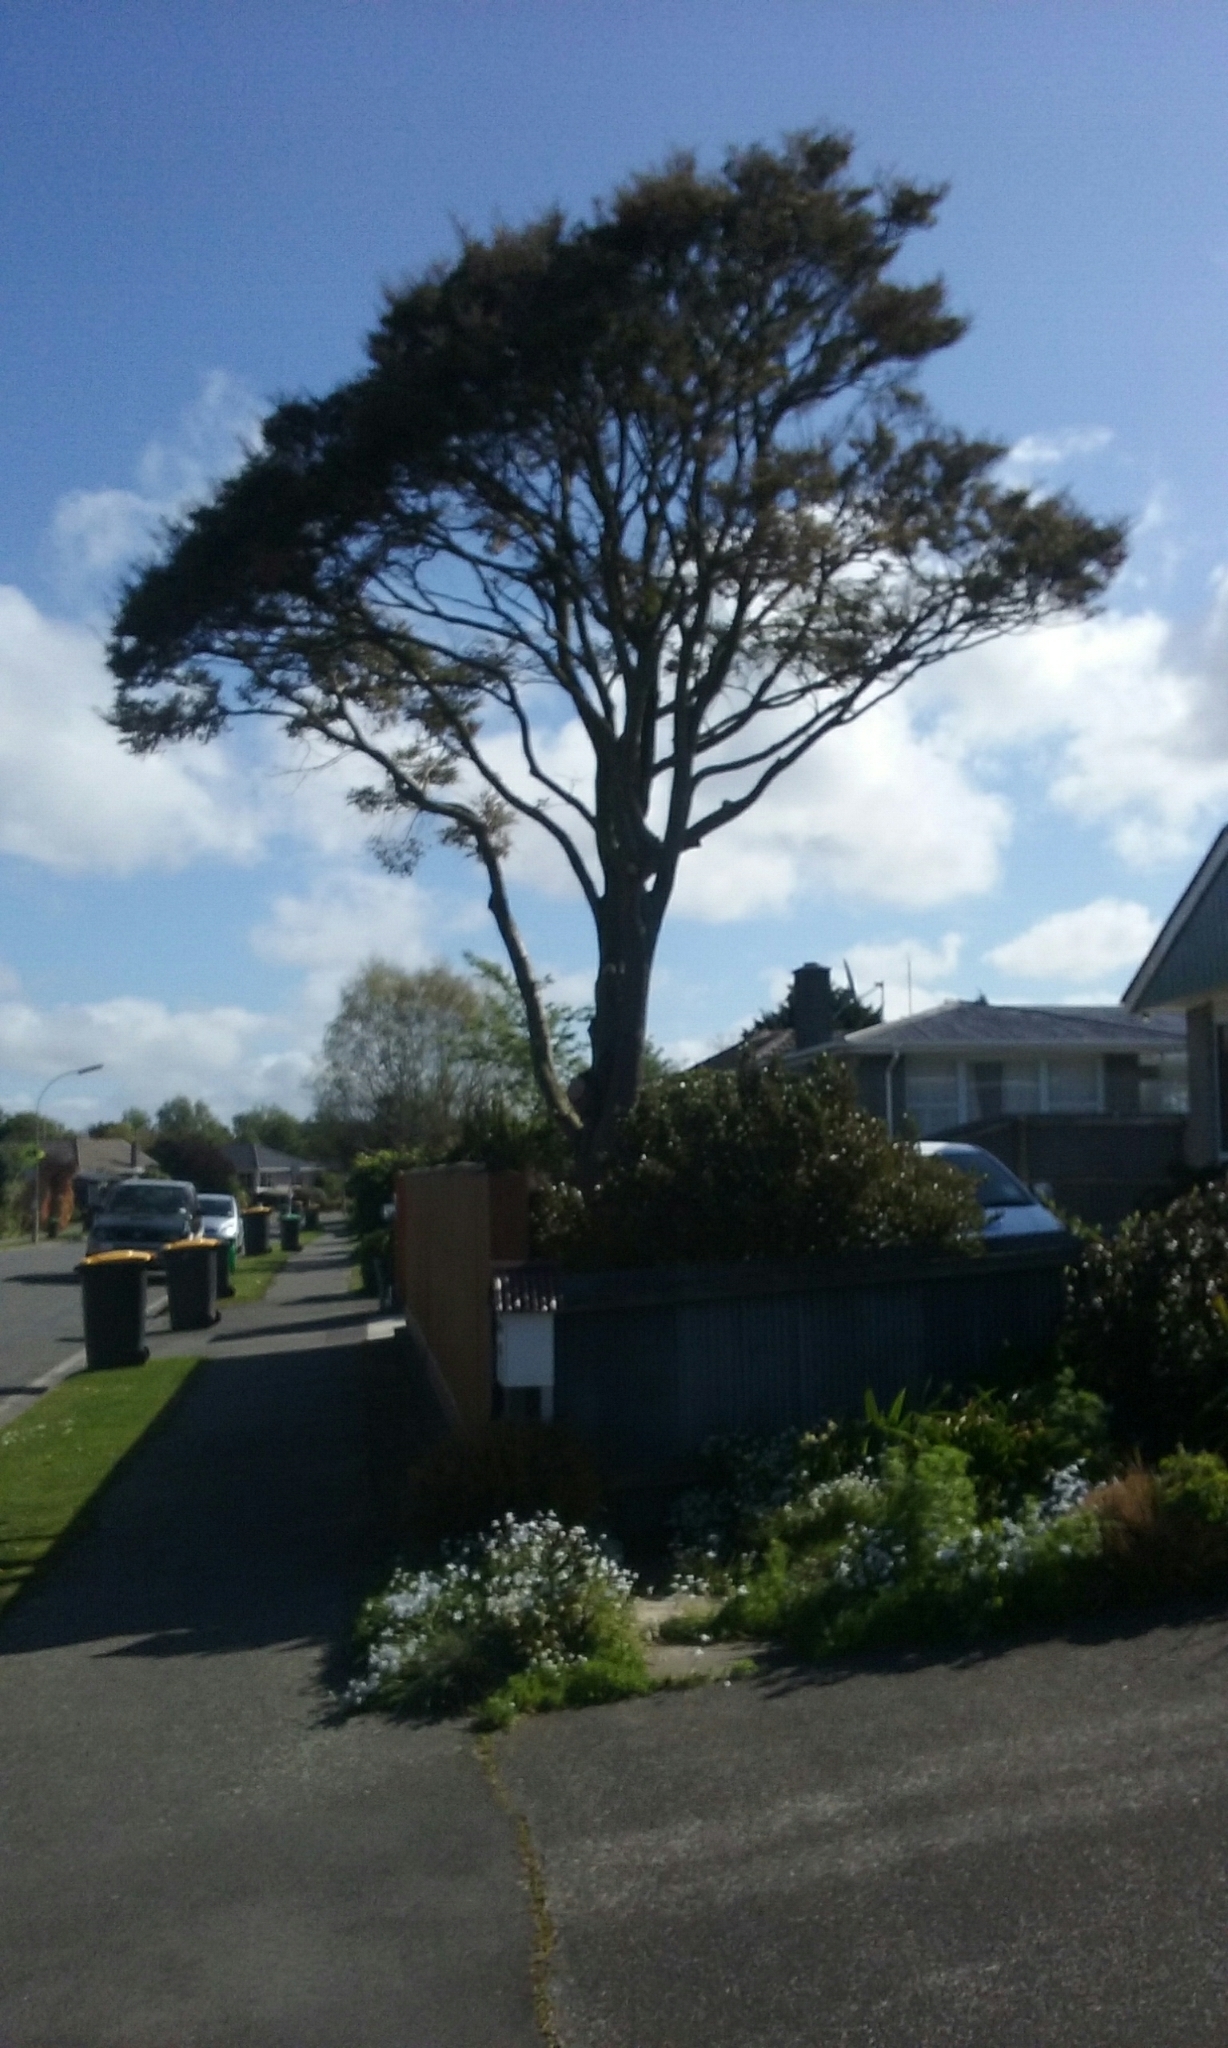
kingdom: Plantae
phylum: Tracheophyta
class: Magnoliopsida
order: Fagales
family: Nothofagaceae
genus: Nothofagus
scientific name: Nothofagus menziesii
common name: Silver beech
